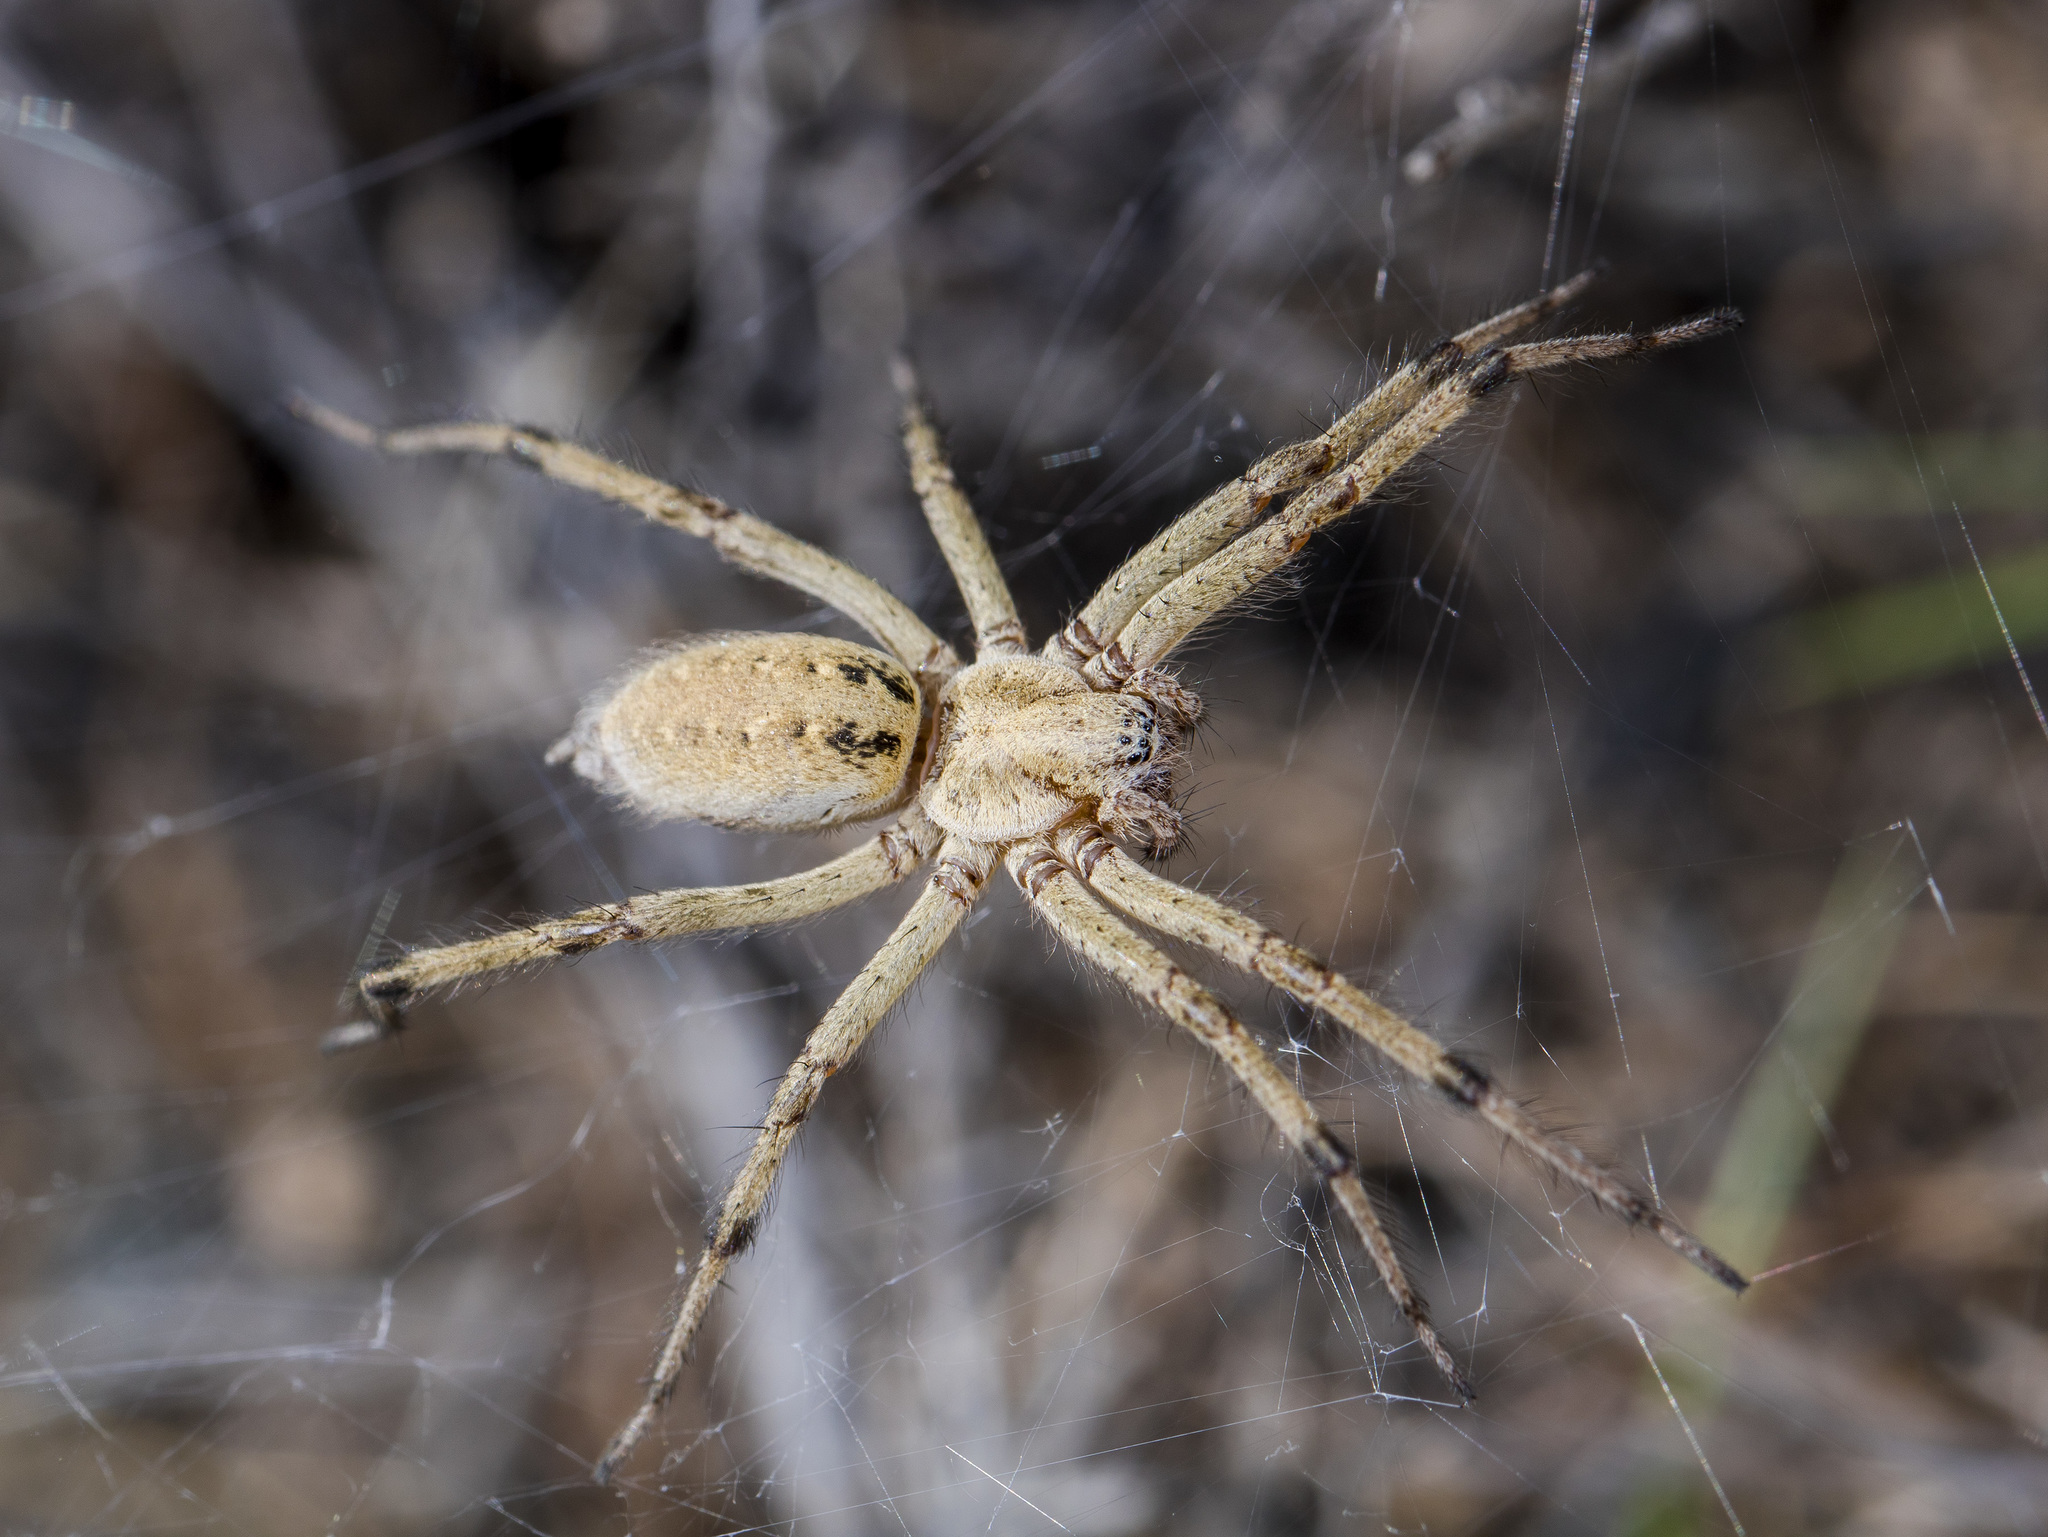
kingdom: Animalia
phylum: Arthropoda
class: Arachnida
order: Araneae
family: Agelenidae
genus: Agelena
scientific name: Agelena orientalis
